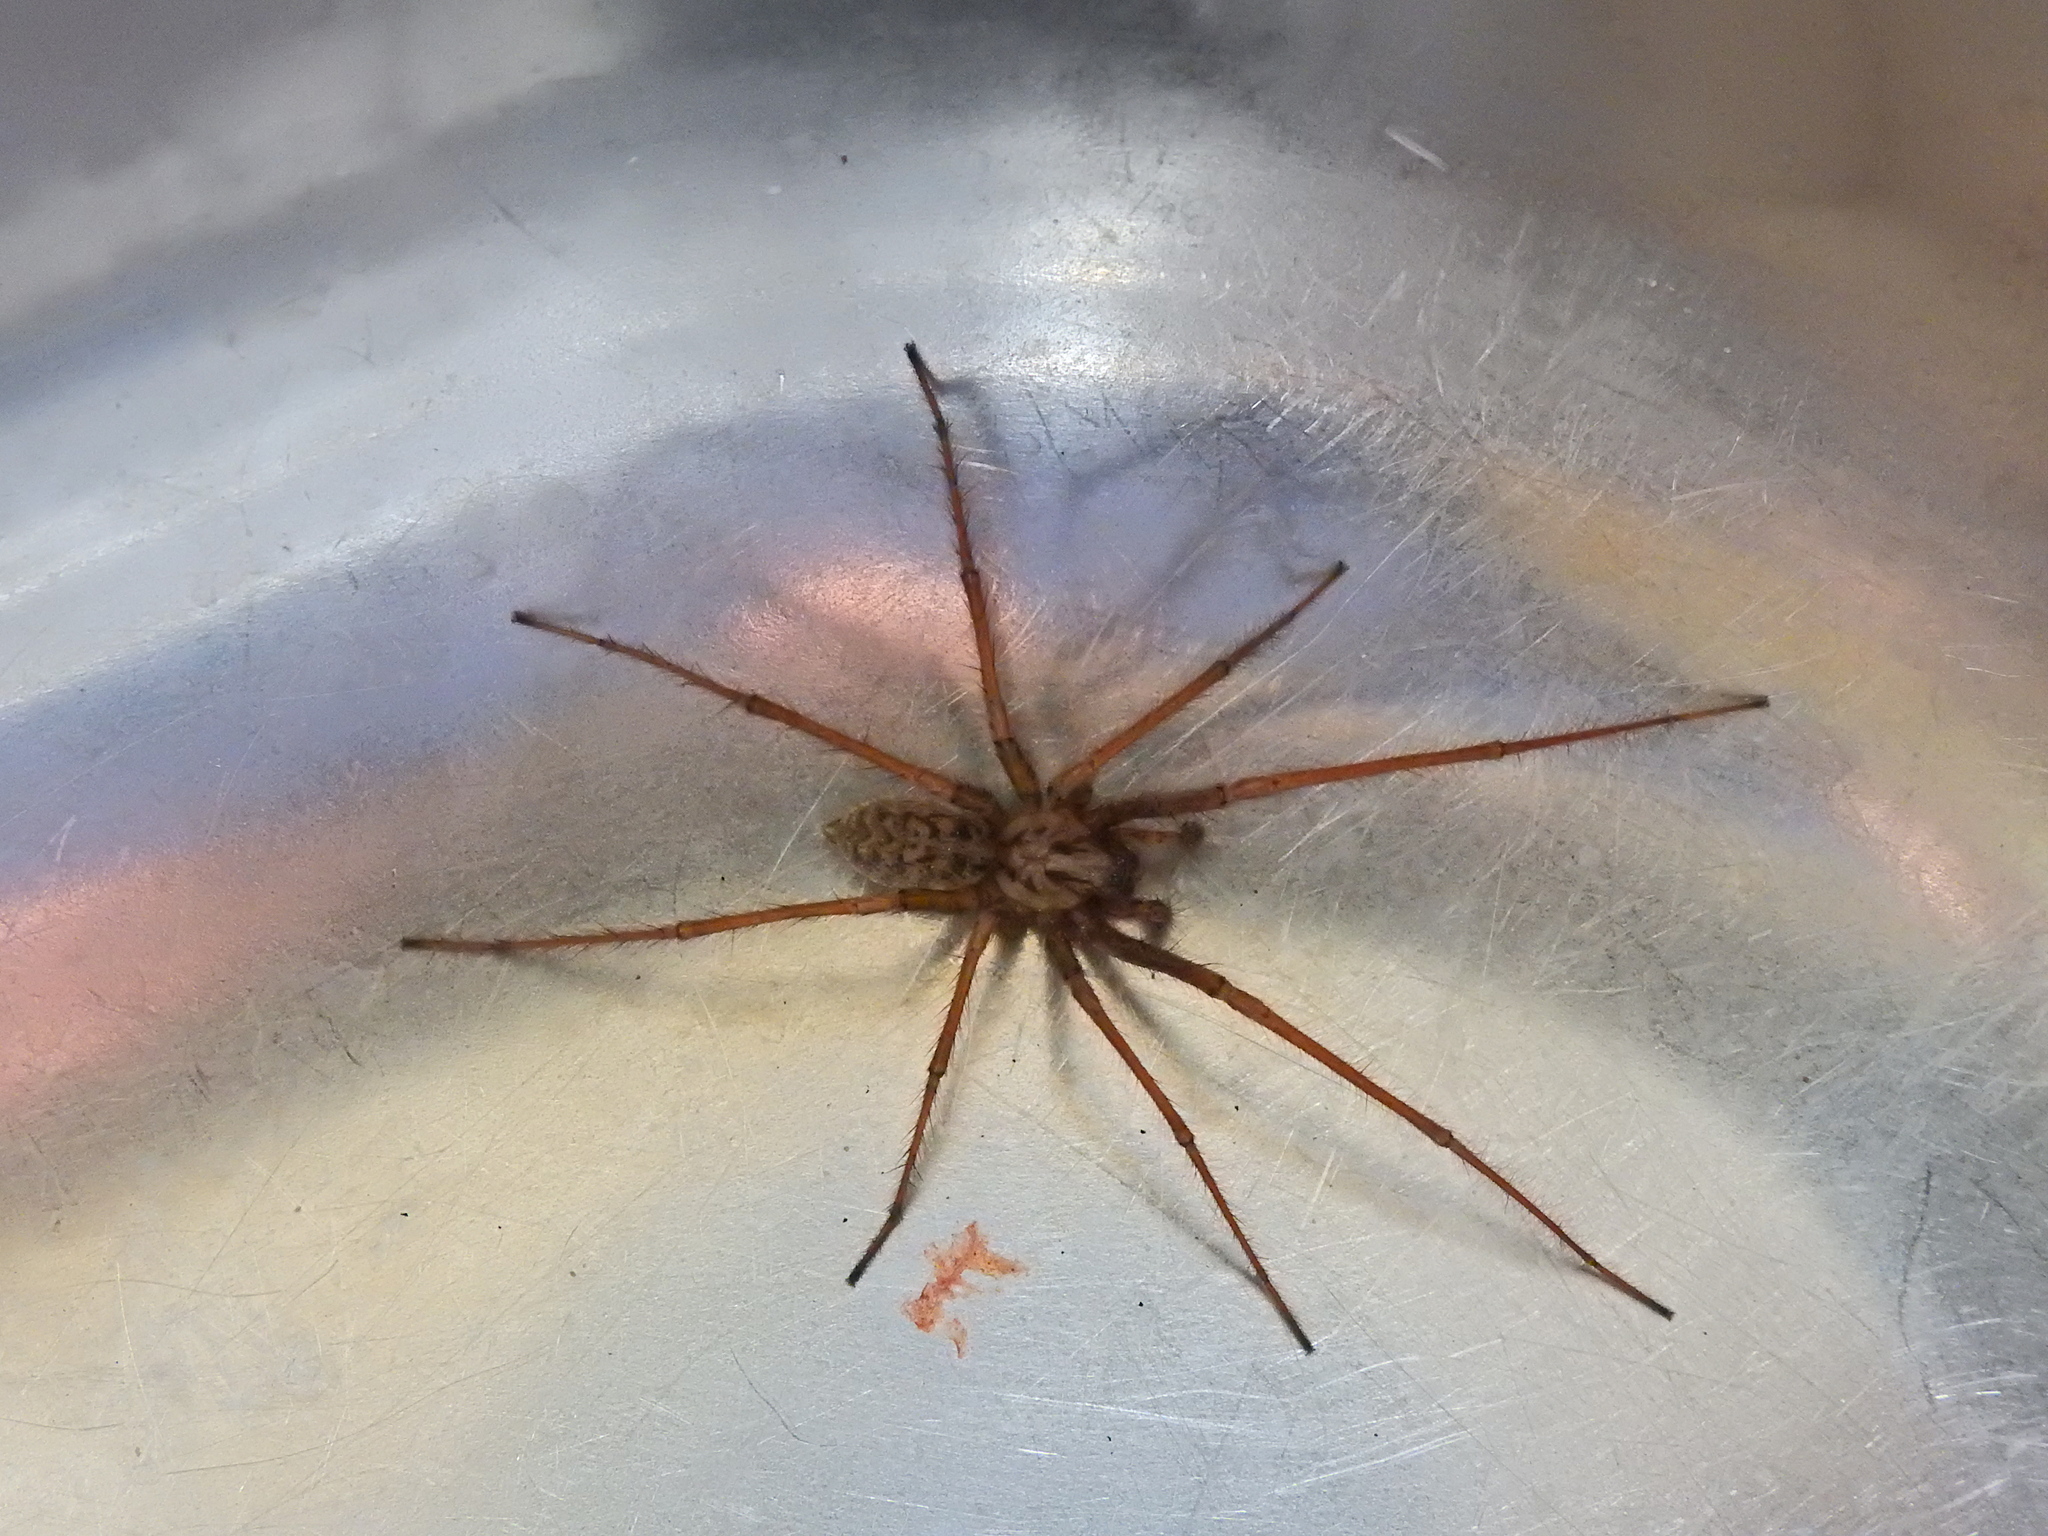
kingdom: Animalia
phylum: Arthropoda
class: Arachnida
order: Araneae
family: Agelenidae
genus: Eratigena
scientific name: Eratigena duellica
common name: Giant house spider
